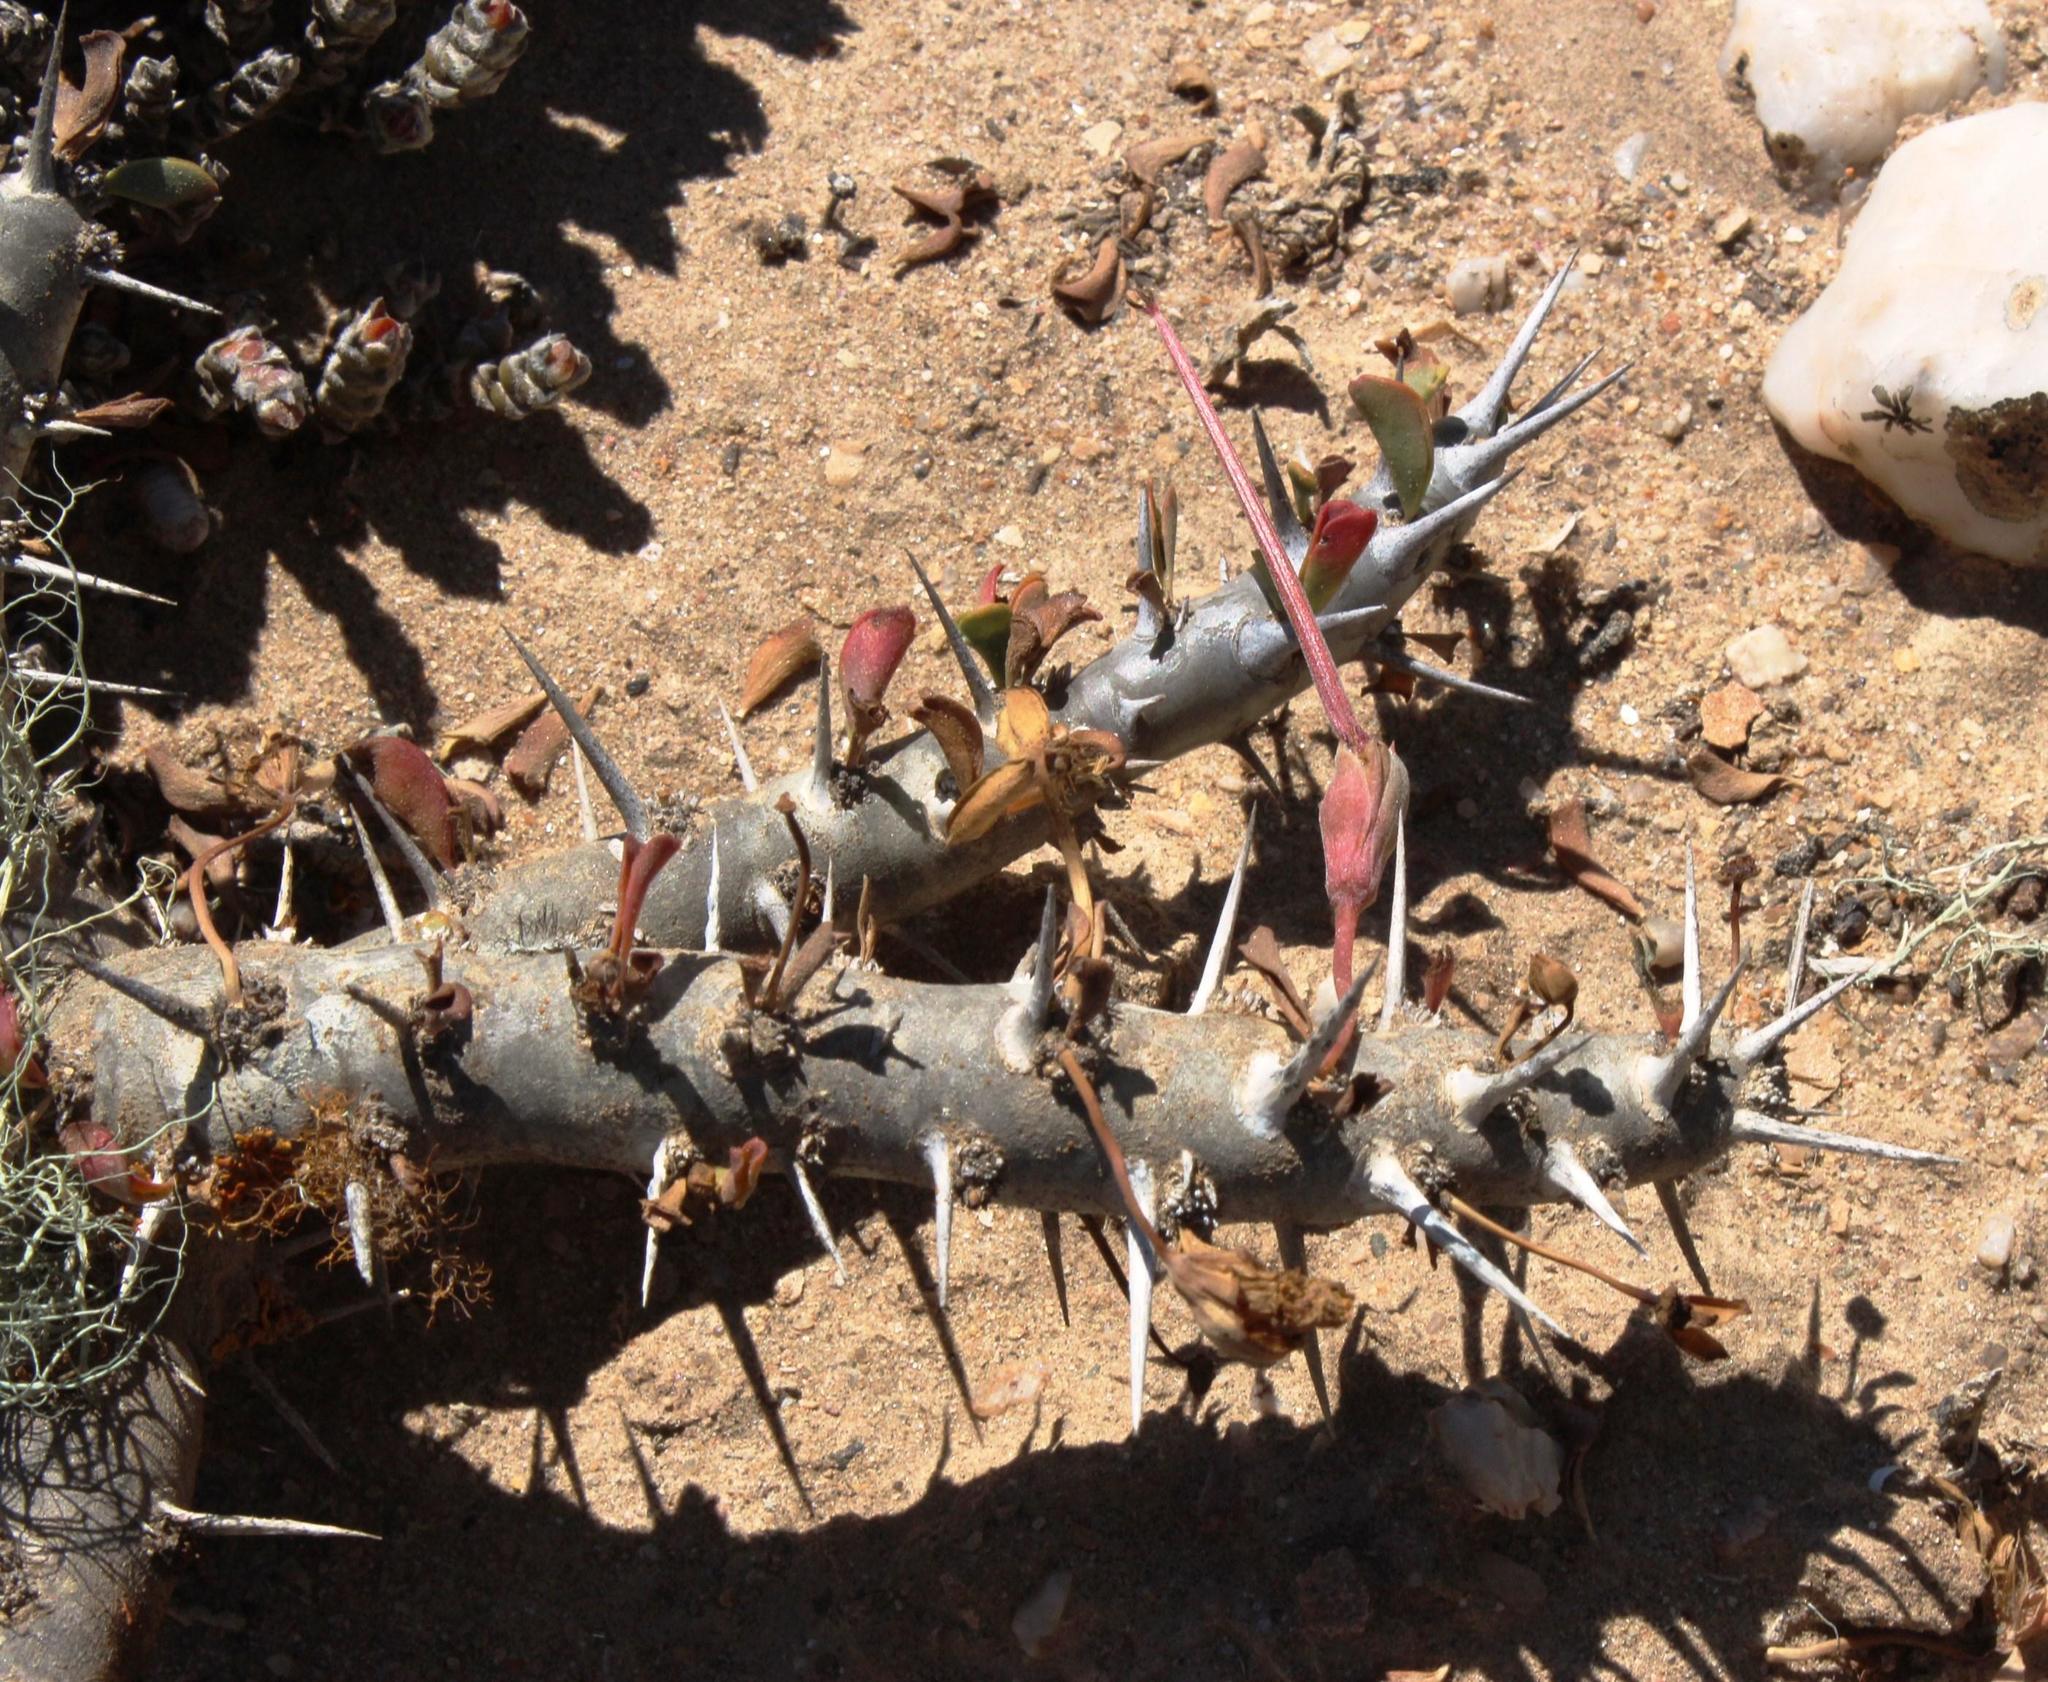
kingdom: Plantae
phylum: Tracheophyta
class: Magnoliopsida
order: Geraniales
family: Geraniaceae
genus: Monsonia
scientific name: Monsonia patersonii
